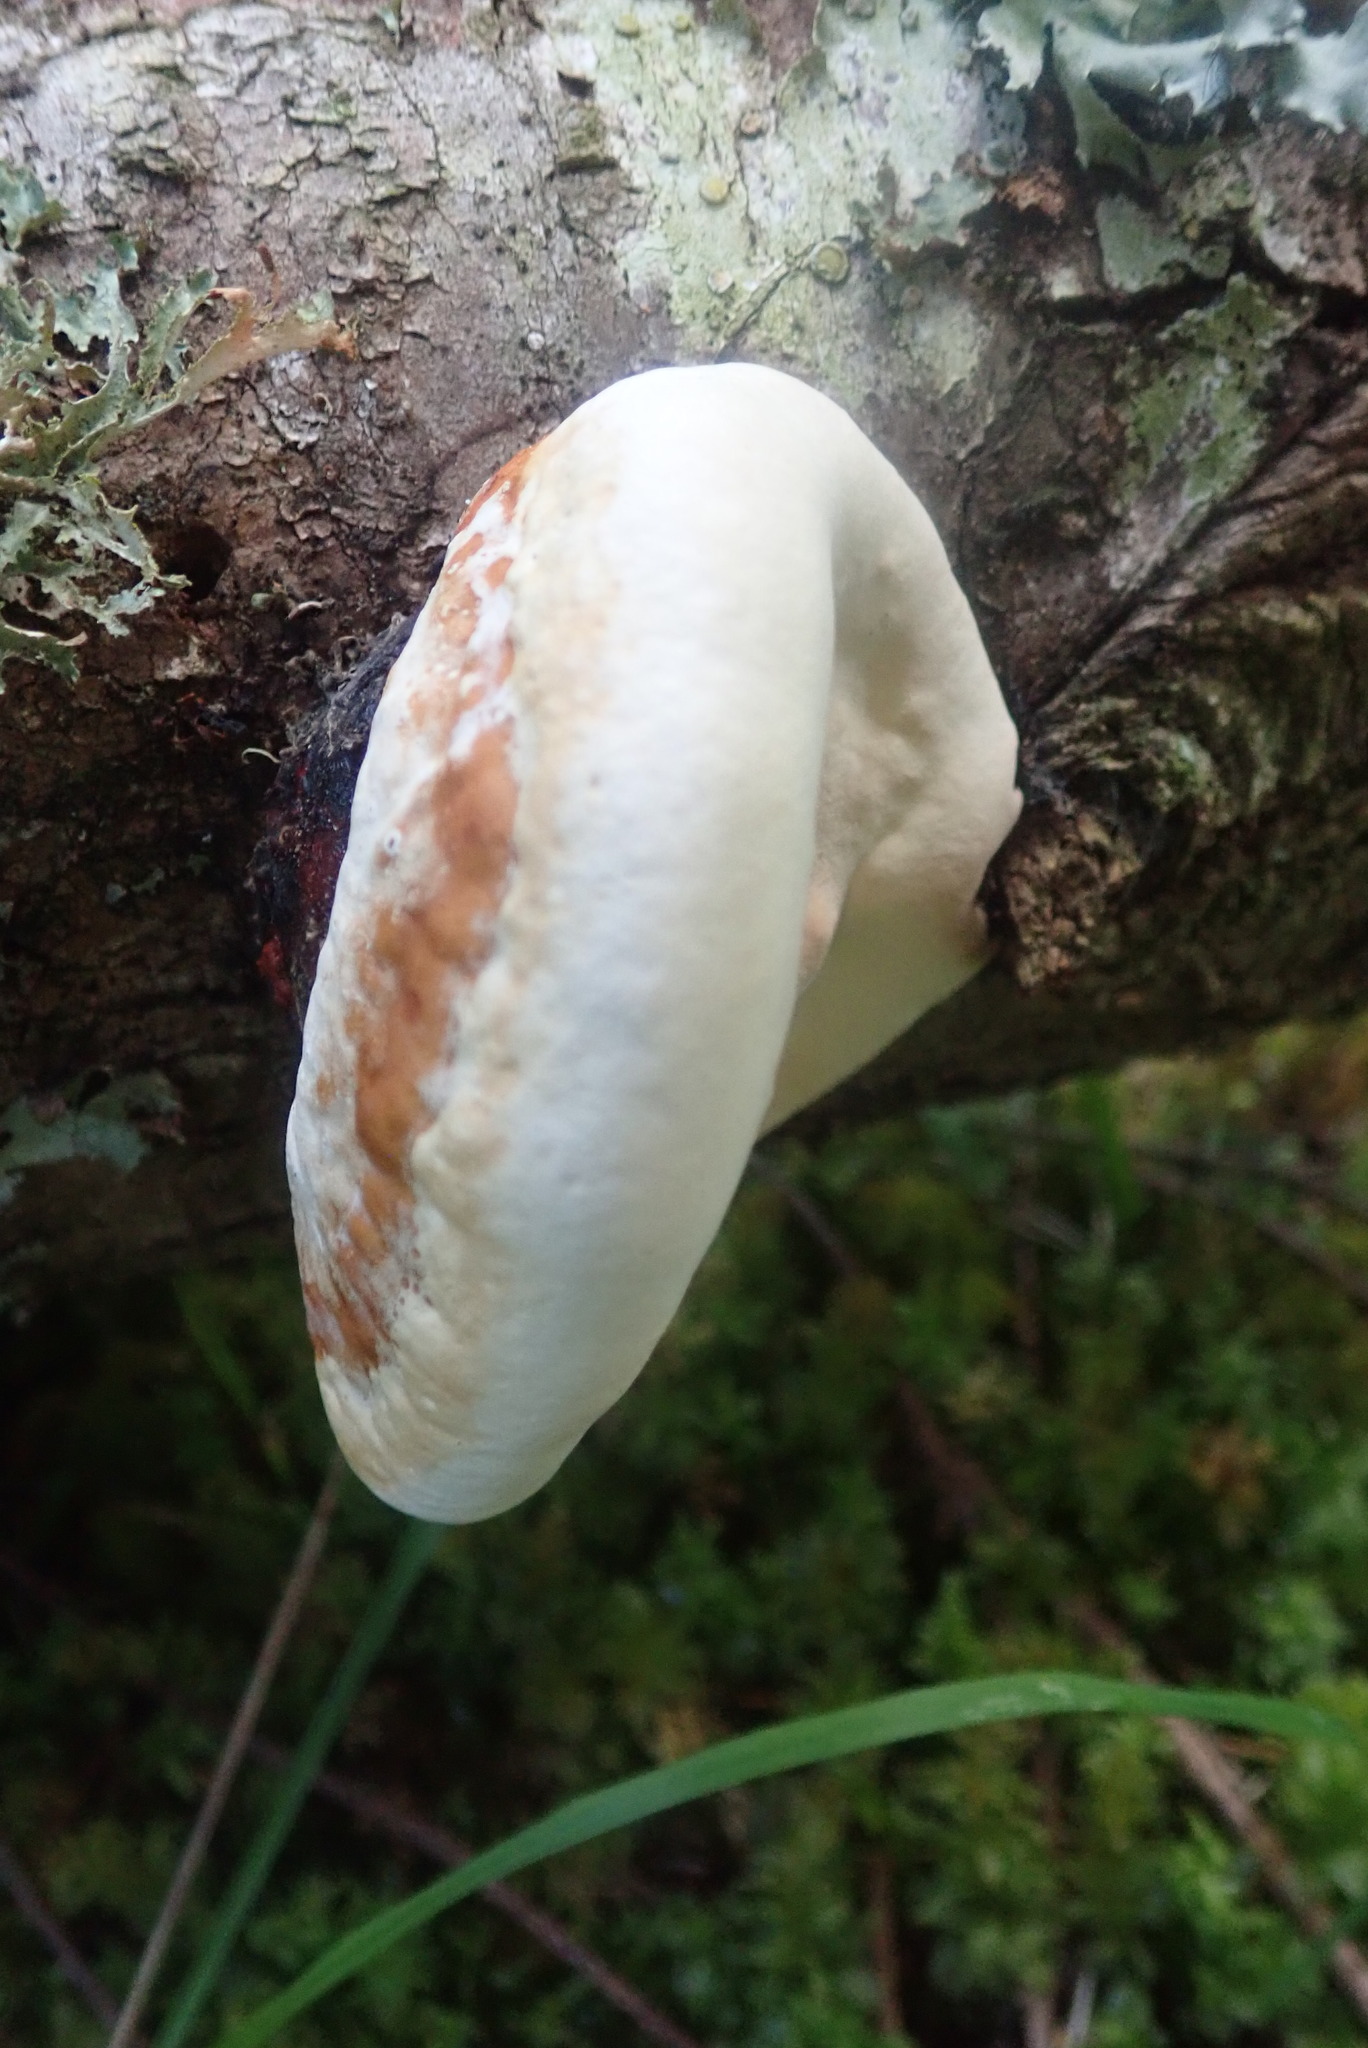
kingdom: Fungi
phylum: Basidiomycota
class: Agaricomycetes
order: Polyporales
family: Fomitopsidaceae
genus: Fomitopsis
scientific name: Fomitopsis mounceae
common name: Northern red belt
